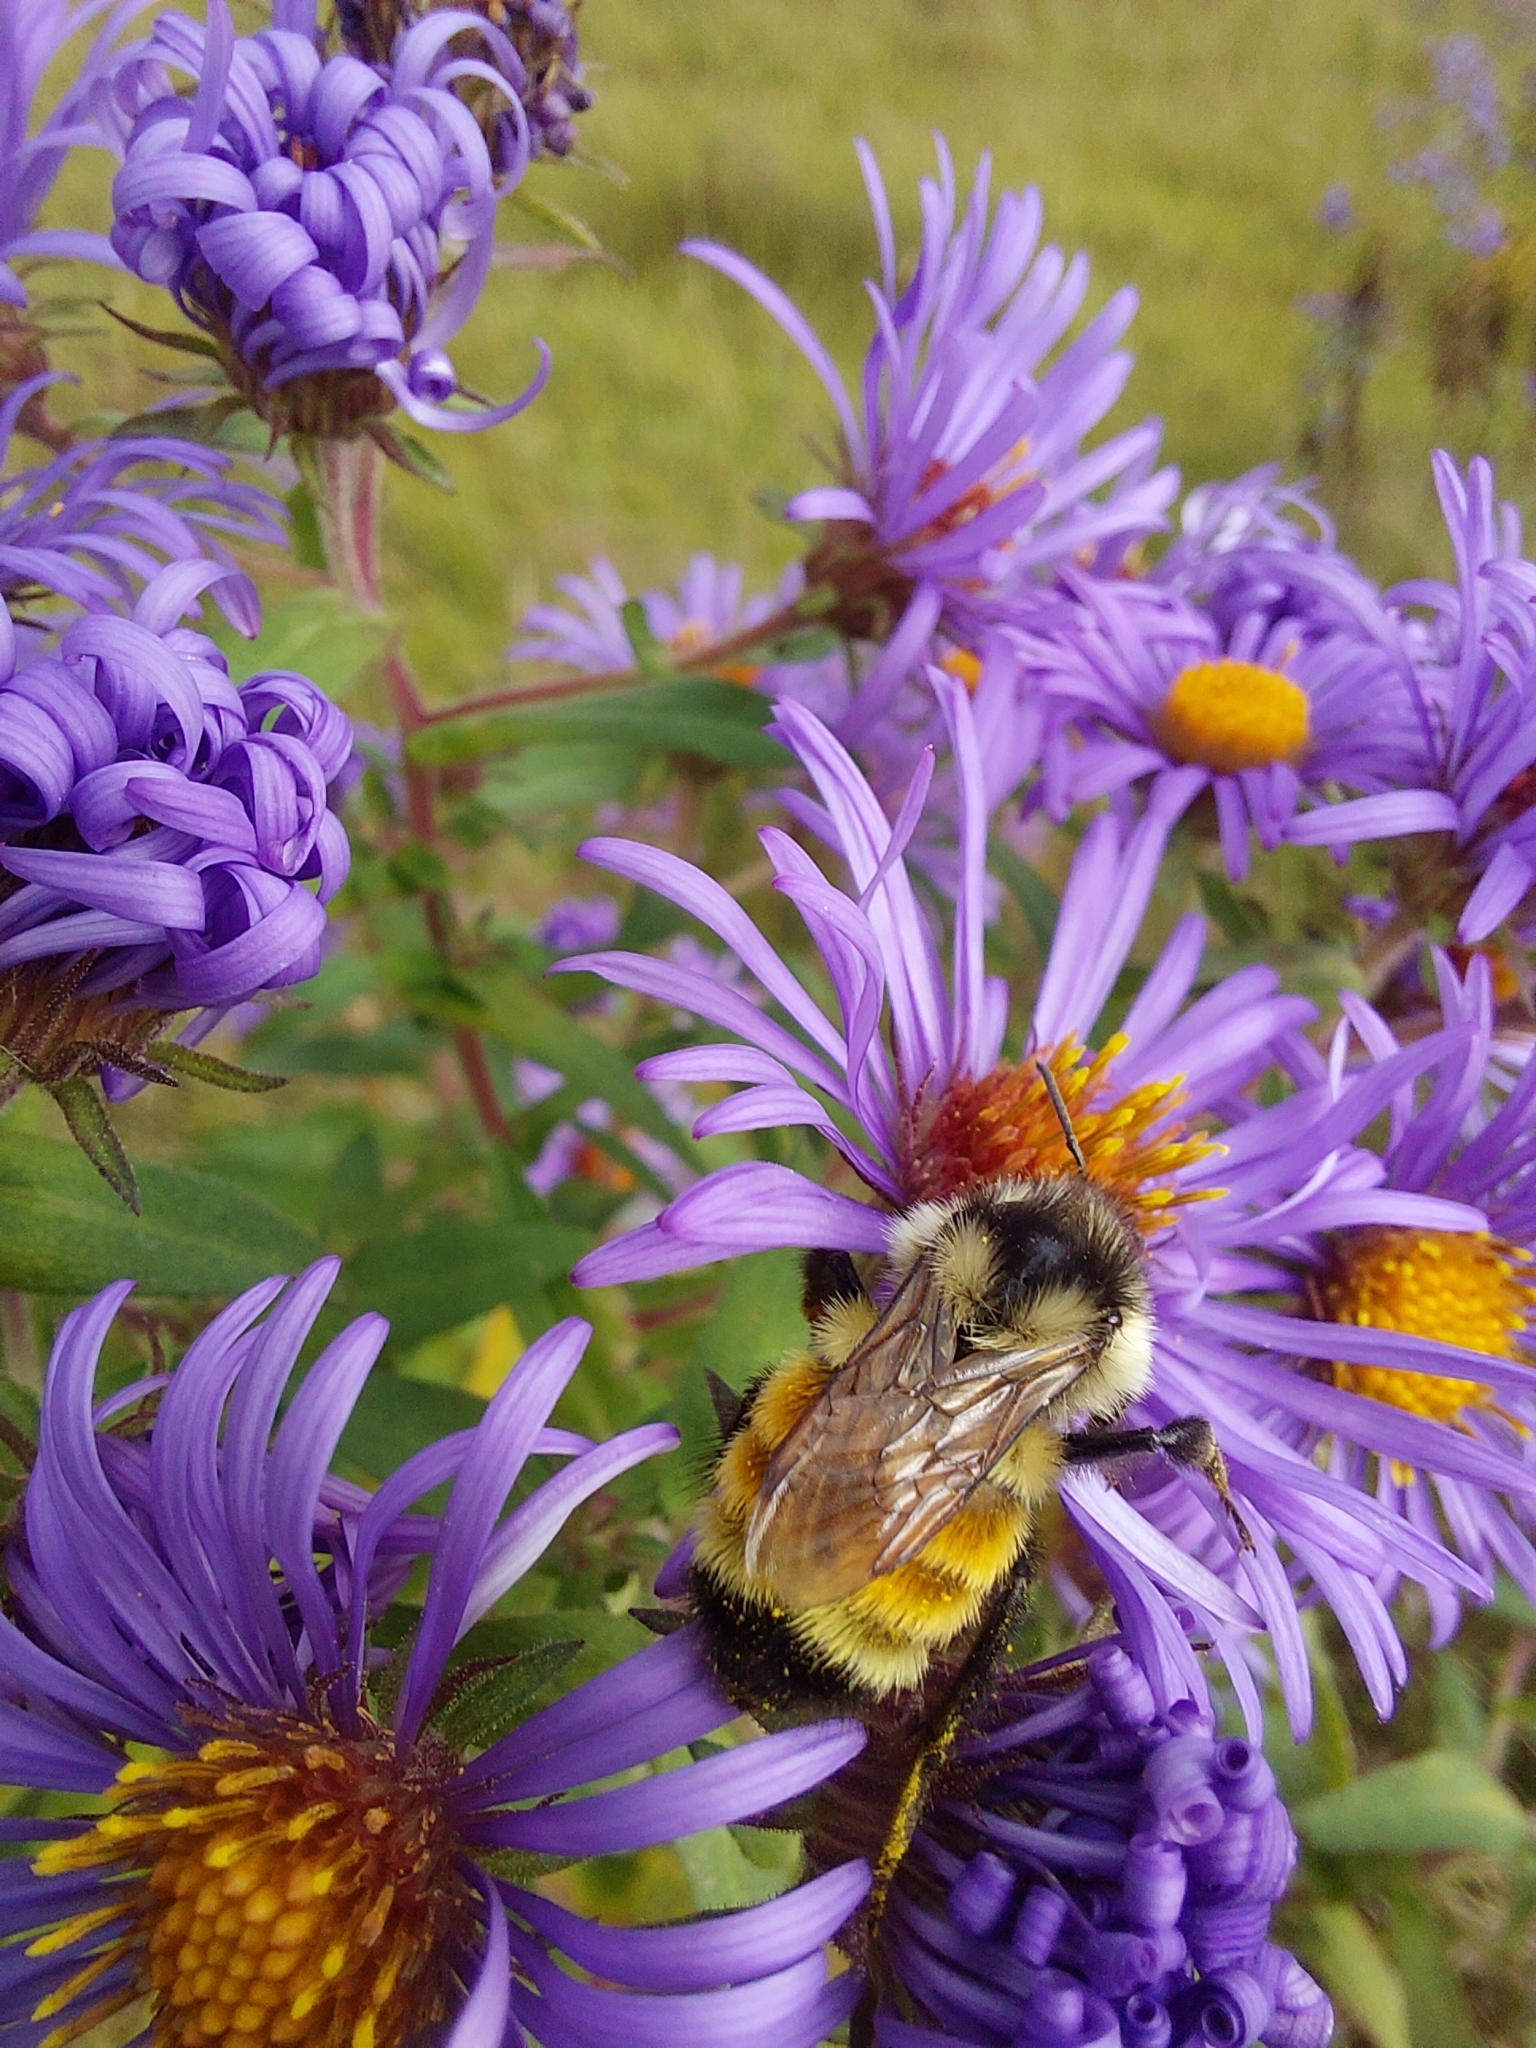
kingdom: Animalia
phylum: Arthropoda
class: Insecta
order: Hymenoptera
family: Apidae
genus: Bombus
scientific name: Bombus ternarius
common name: Tri-colored bumble bee
